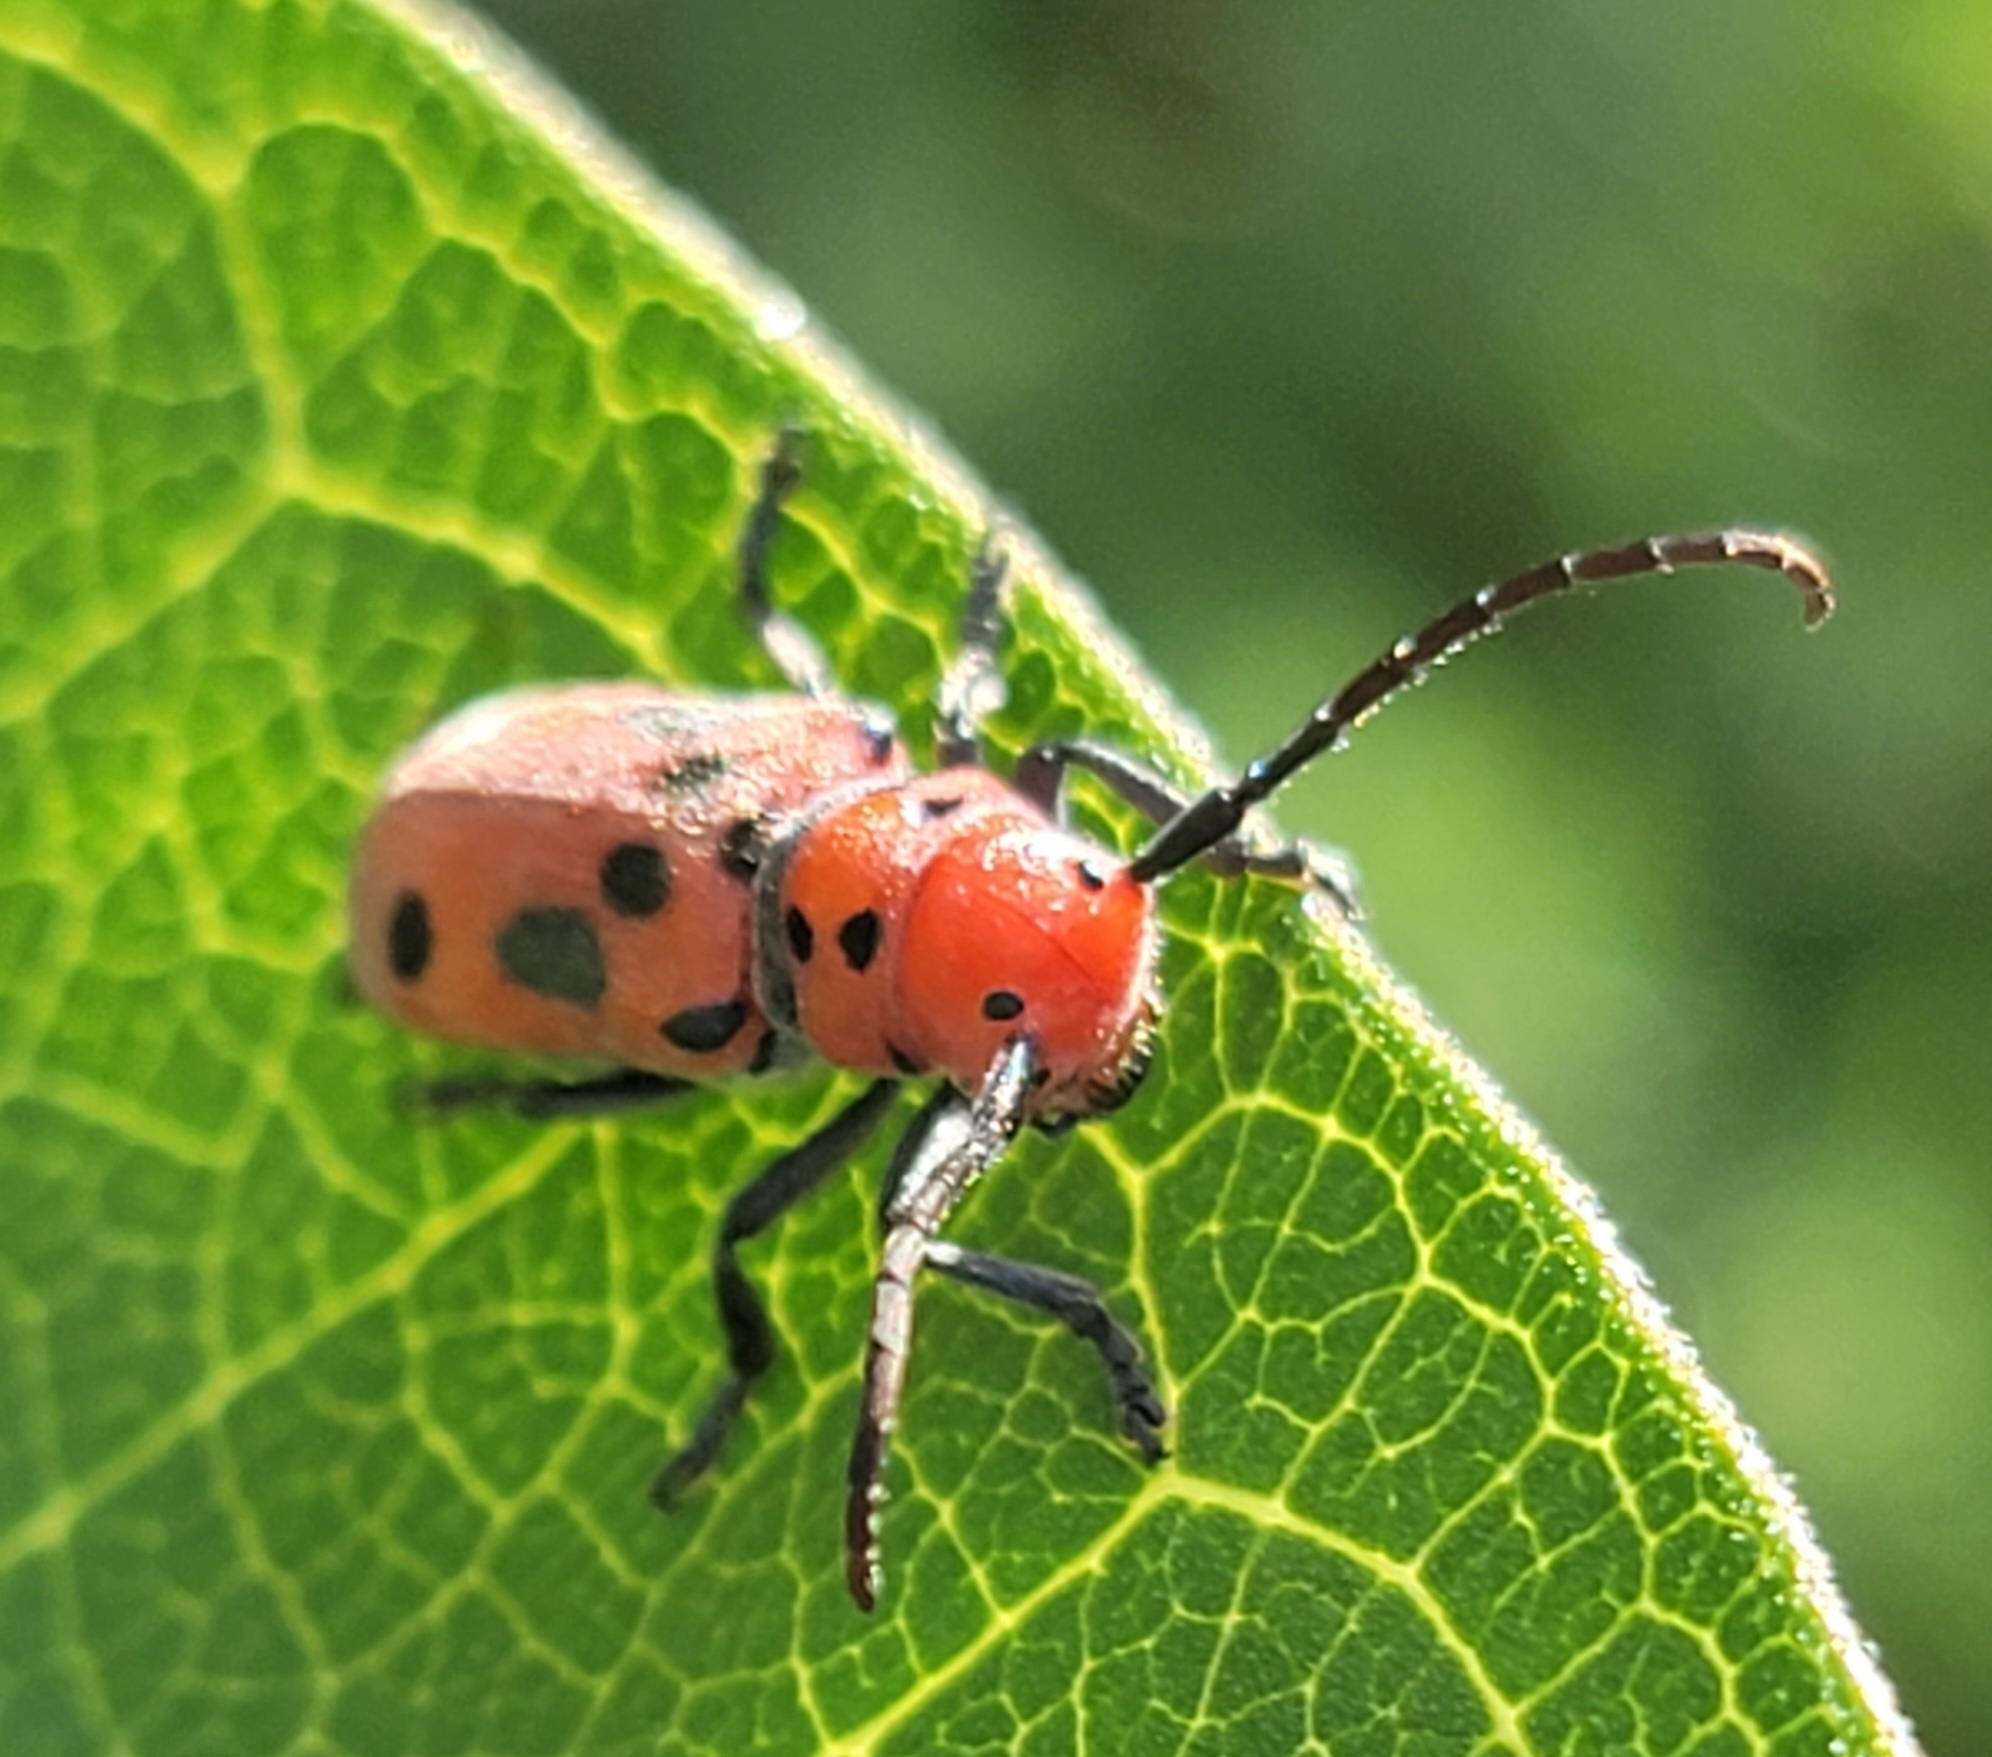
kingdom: Animalia
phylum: Arthropoda
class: Insecta
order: Coleoptera
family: Cerambycidae
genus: Tetraopes
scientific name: Tetraopes tetrophthalmus
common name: Red milkweed beetle
